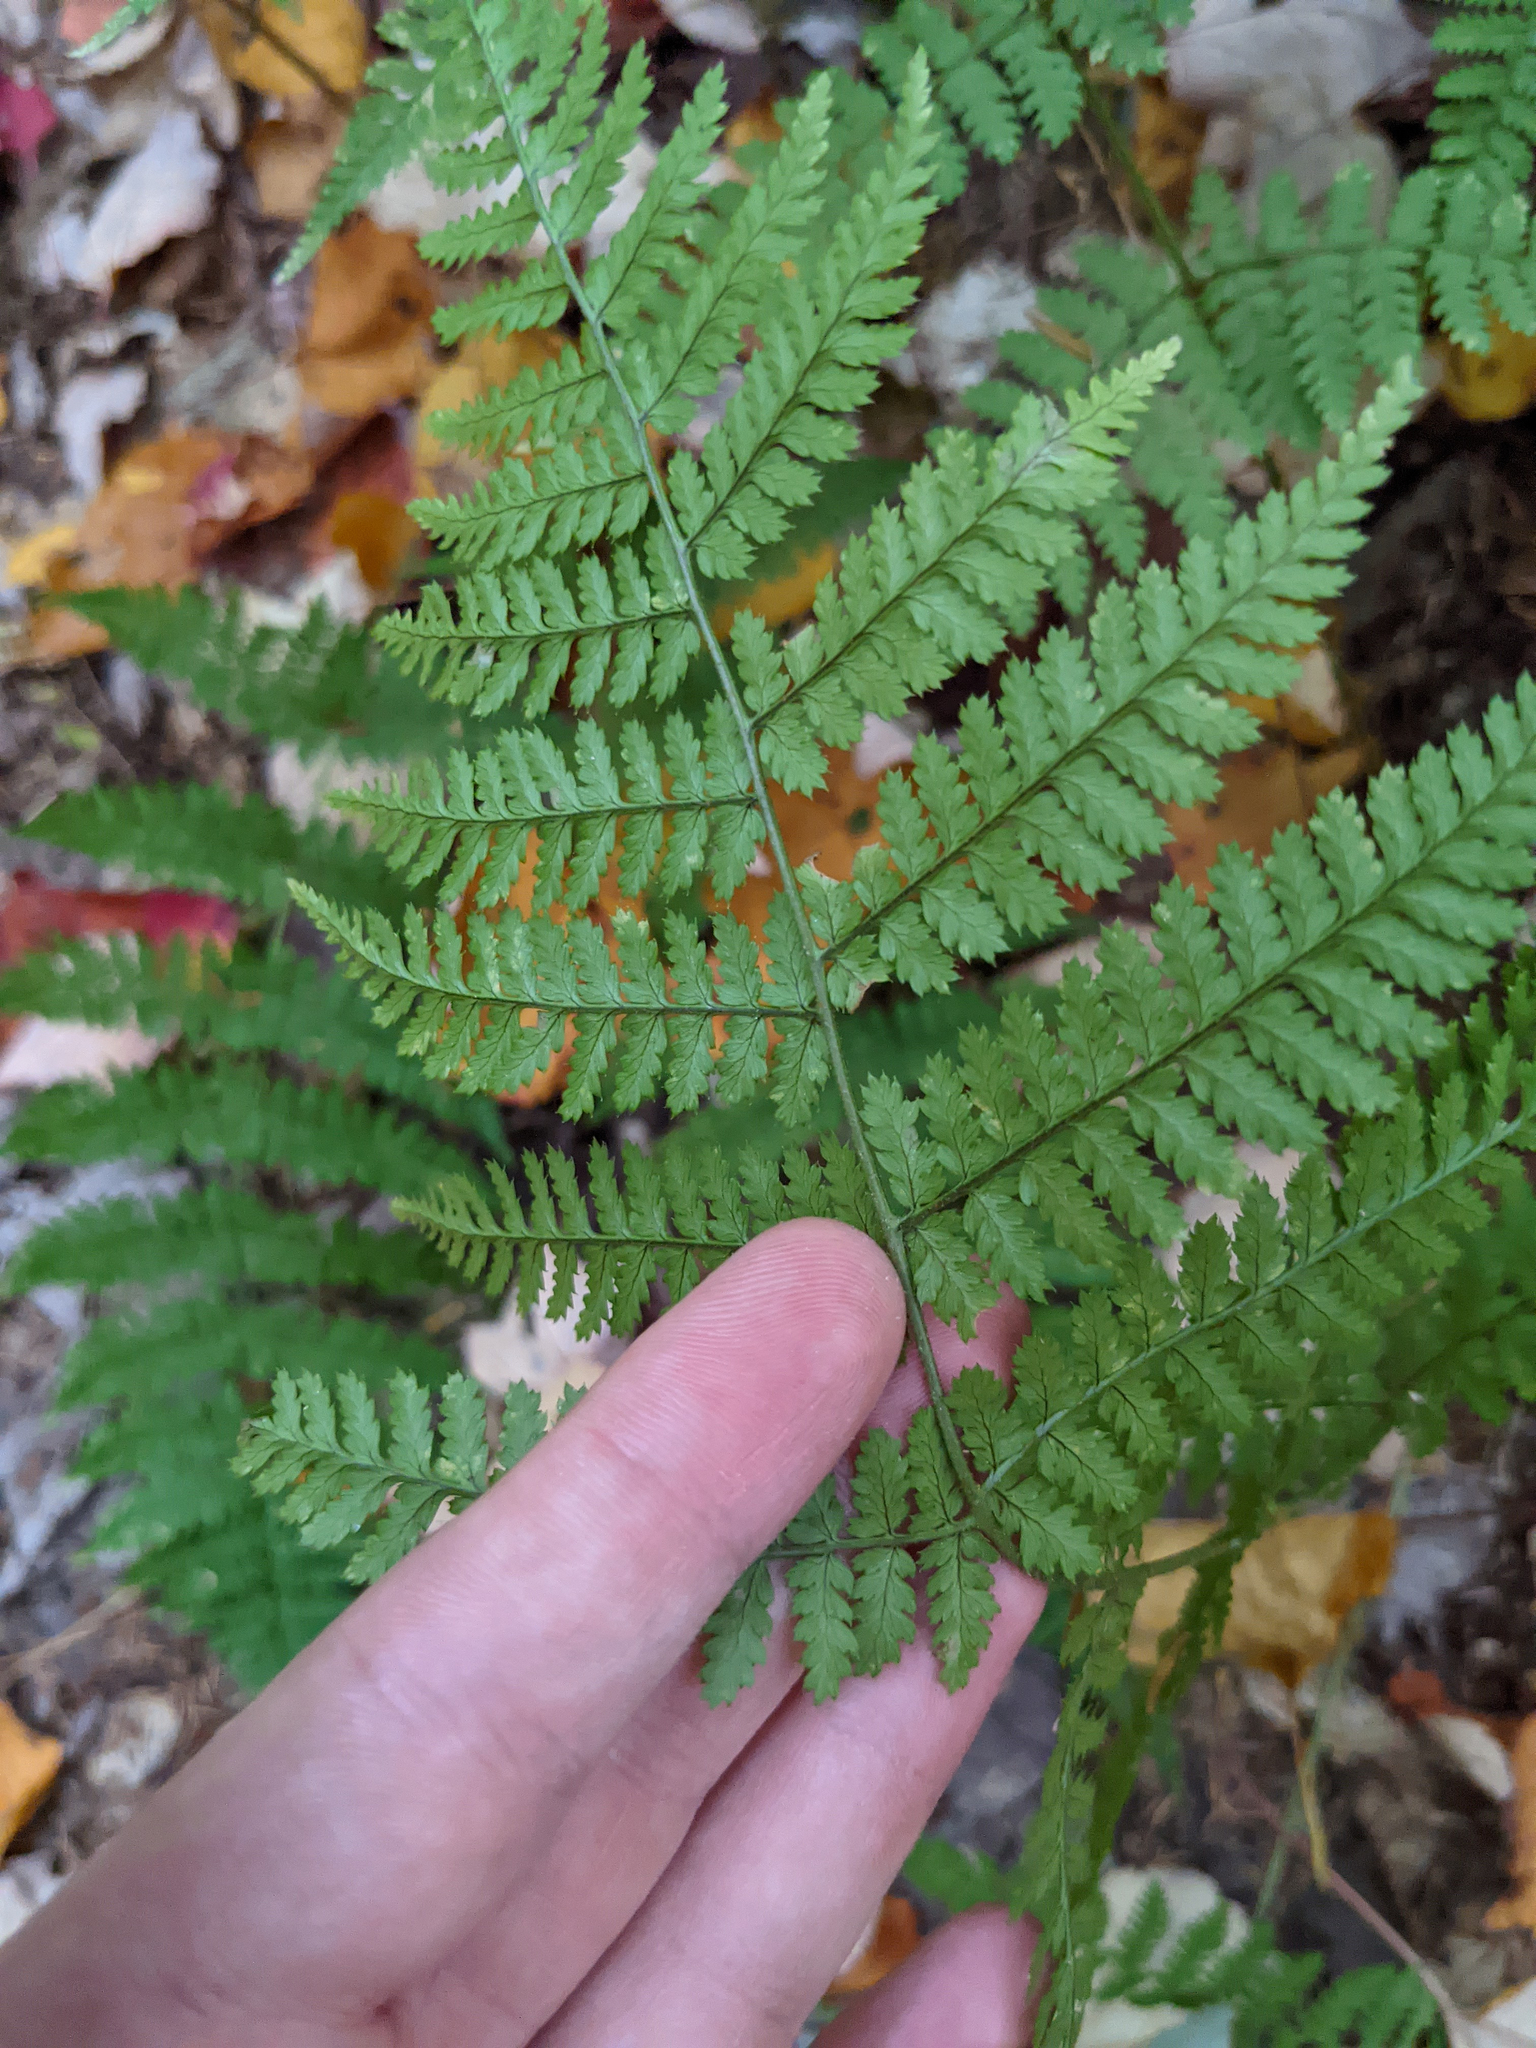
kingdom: Plantae
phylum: Tracheophyta
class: Polypodiopsida
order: Polypodiales
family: Dryopteridaceae
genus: Dryopteris
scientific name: Dryopteris intermedia
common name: Evergreen wood fern
